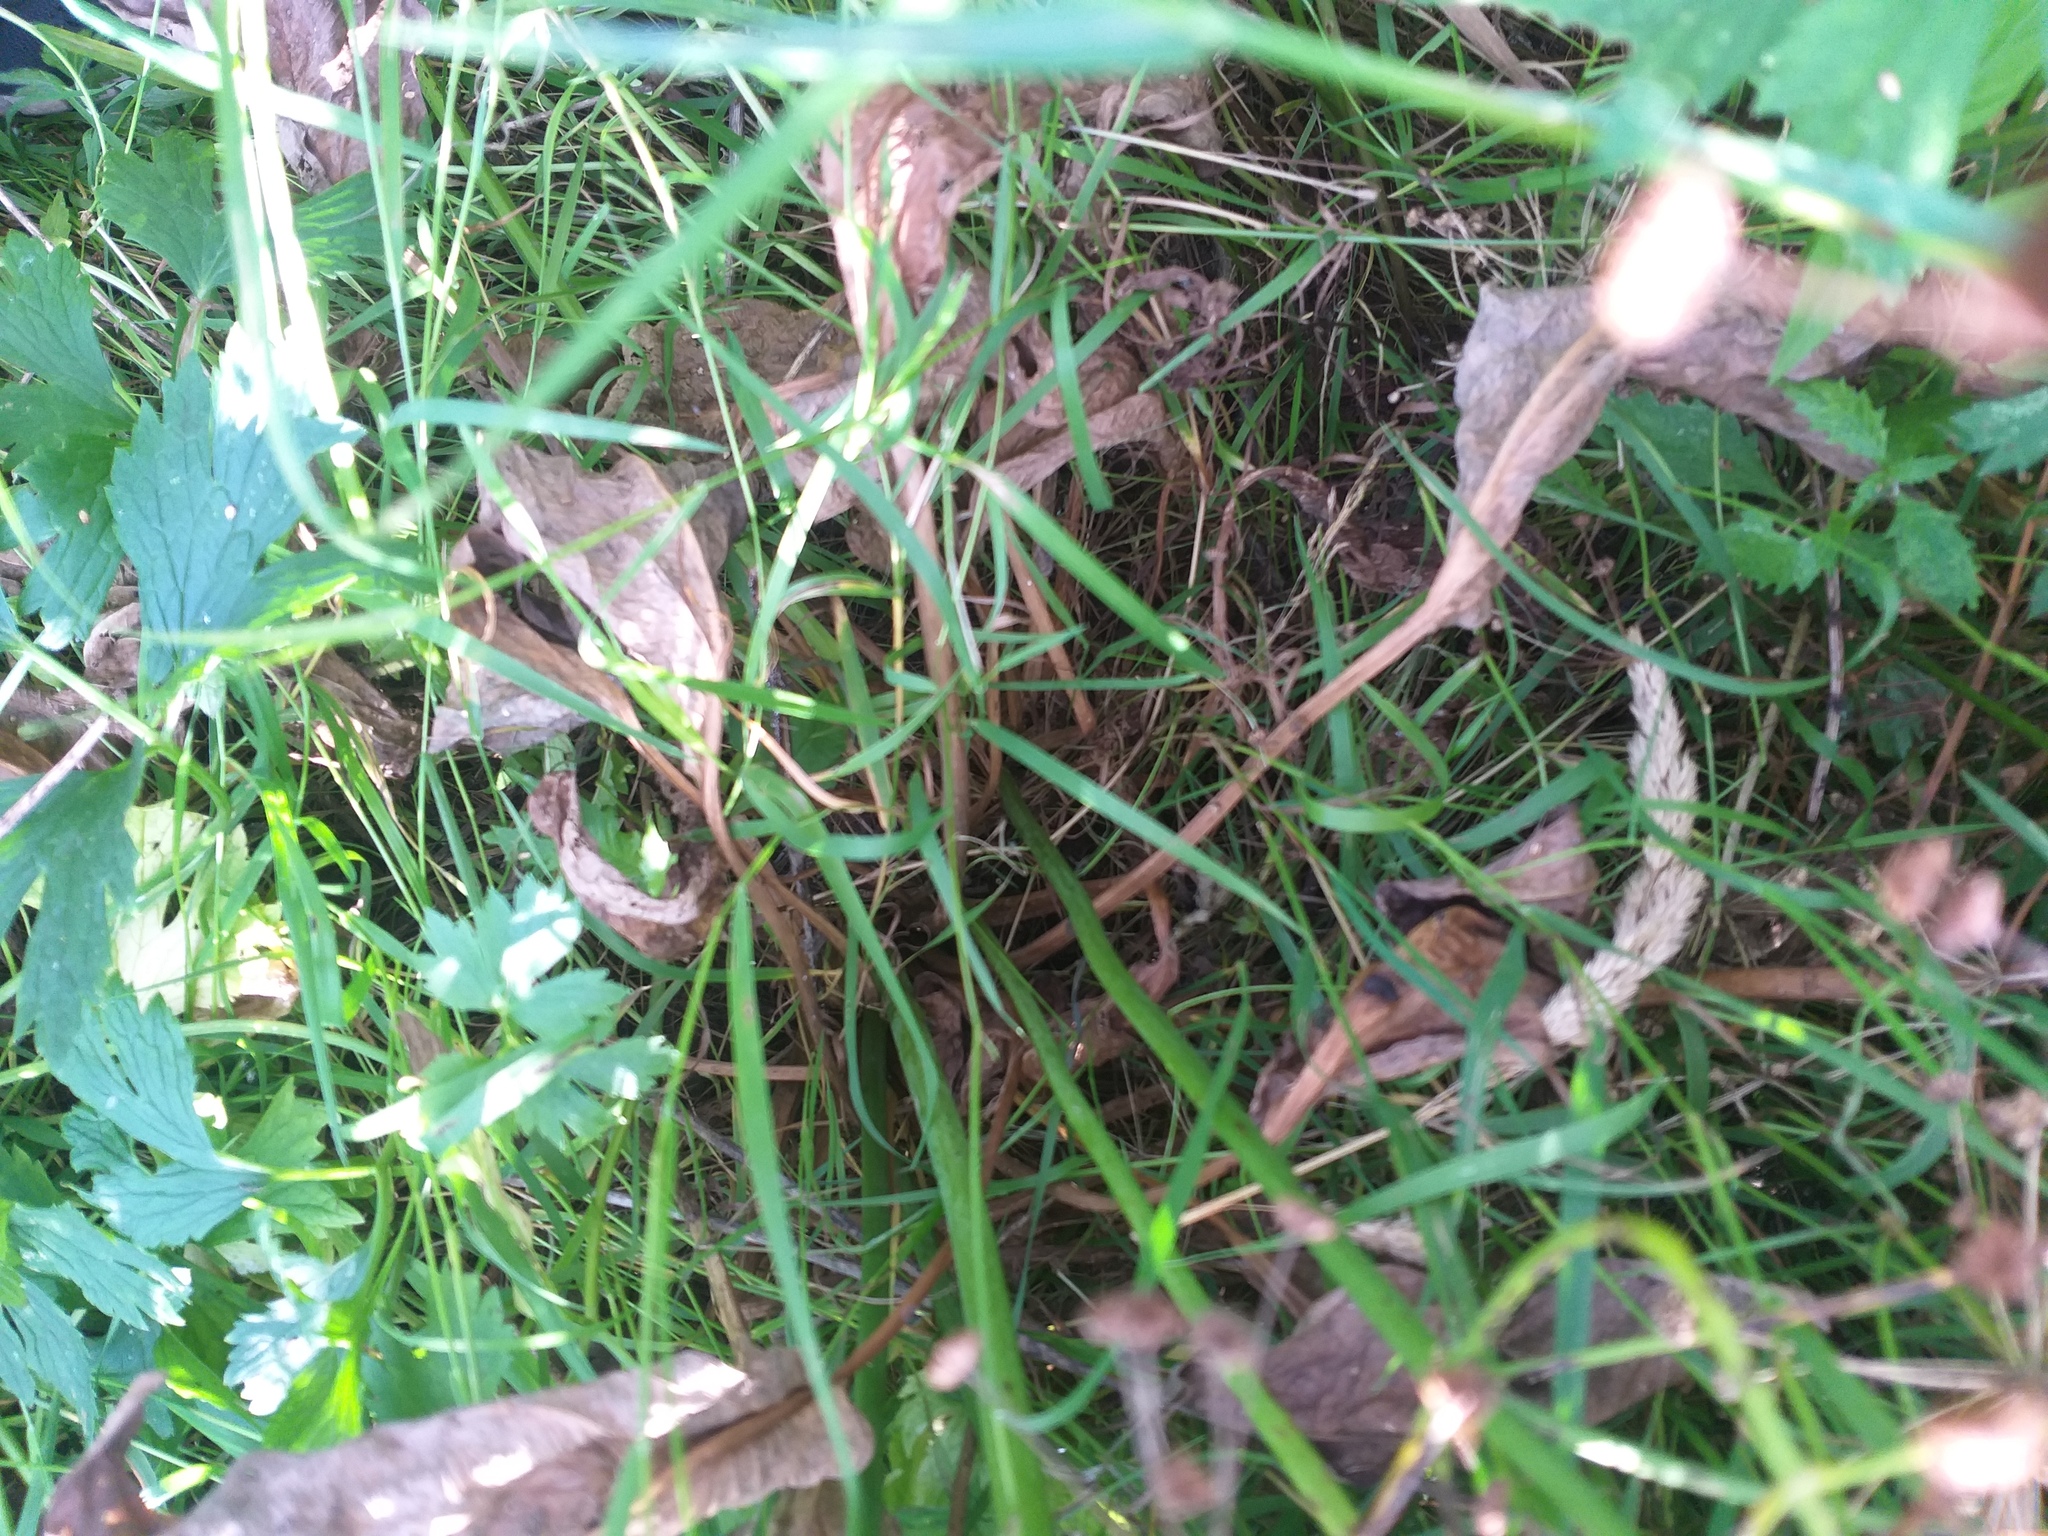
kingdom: Plantae
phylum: Tracheophyta
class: Liliopsida
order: Alismatales
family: Alismataceae
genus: Alisma
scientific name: Alisma plantago-aquatica
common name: Water-plantain
